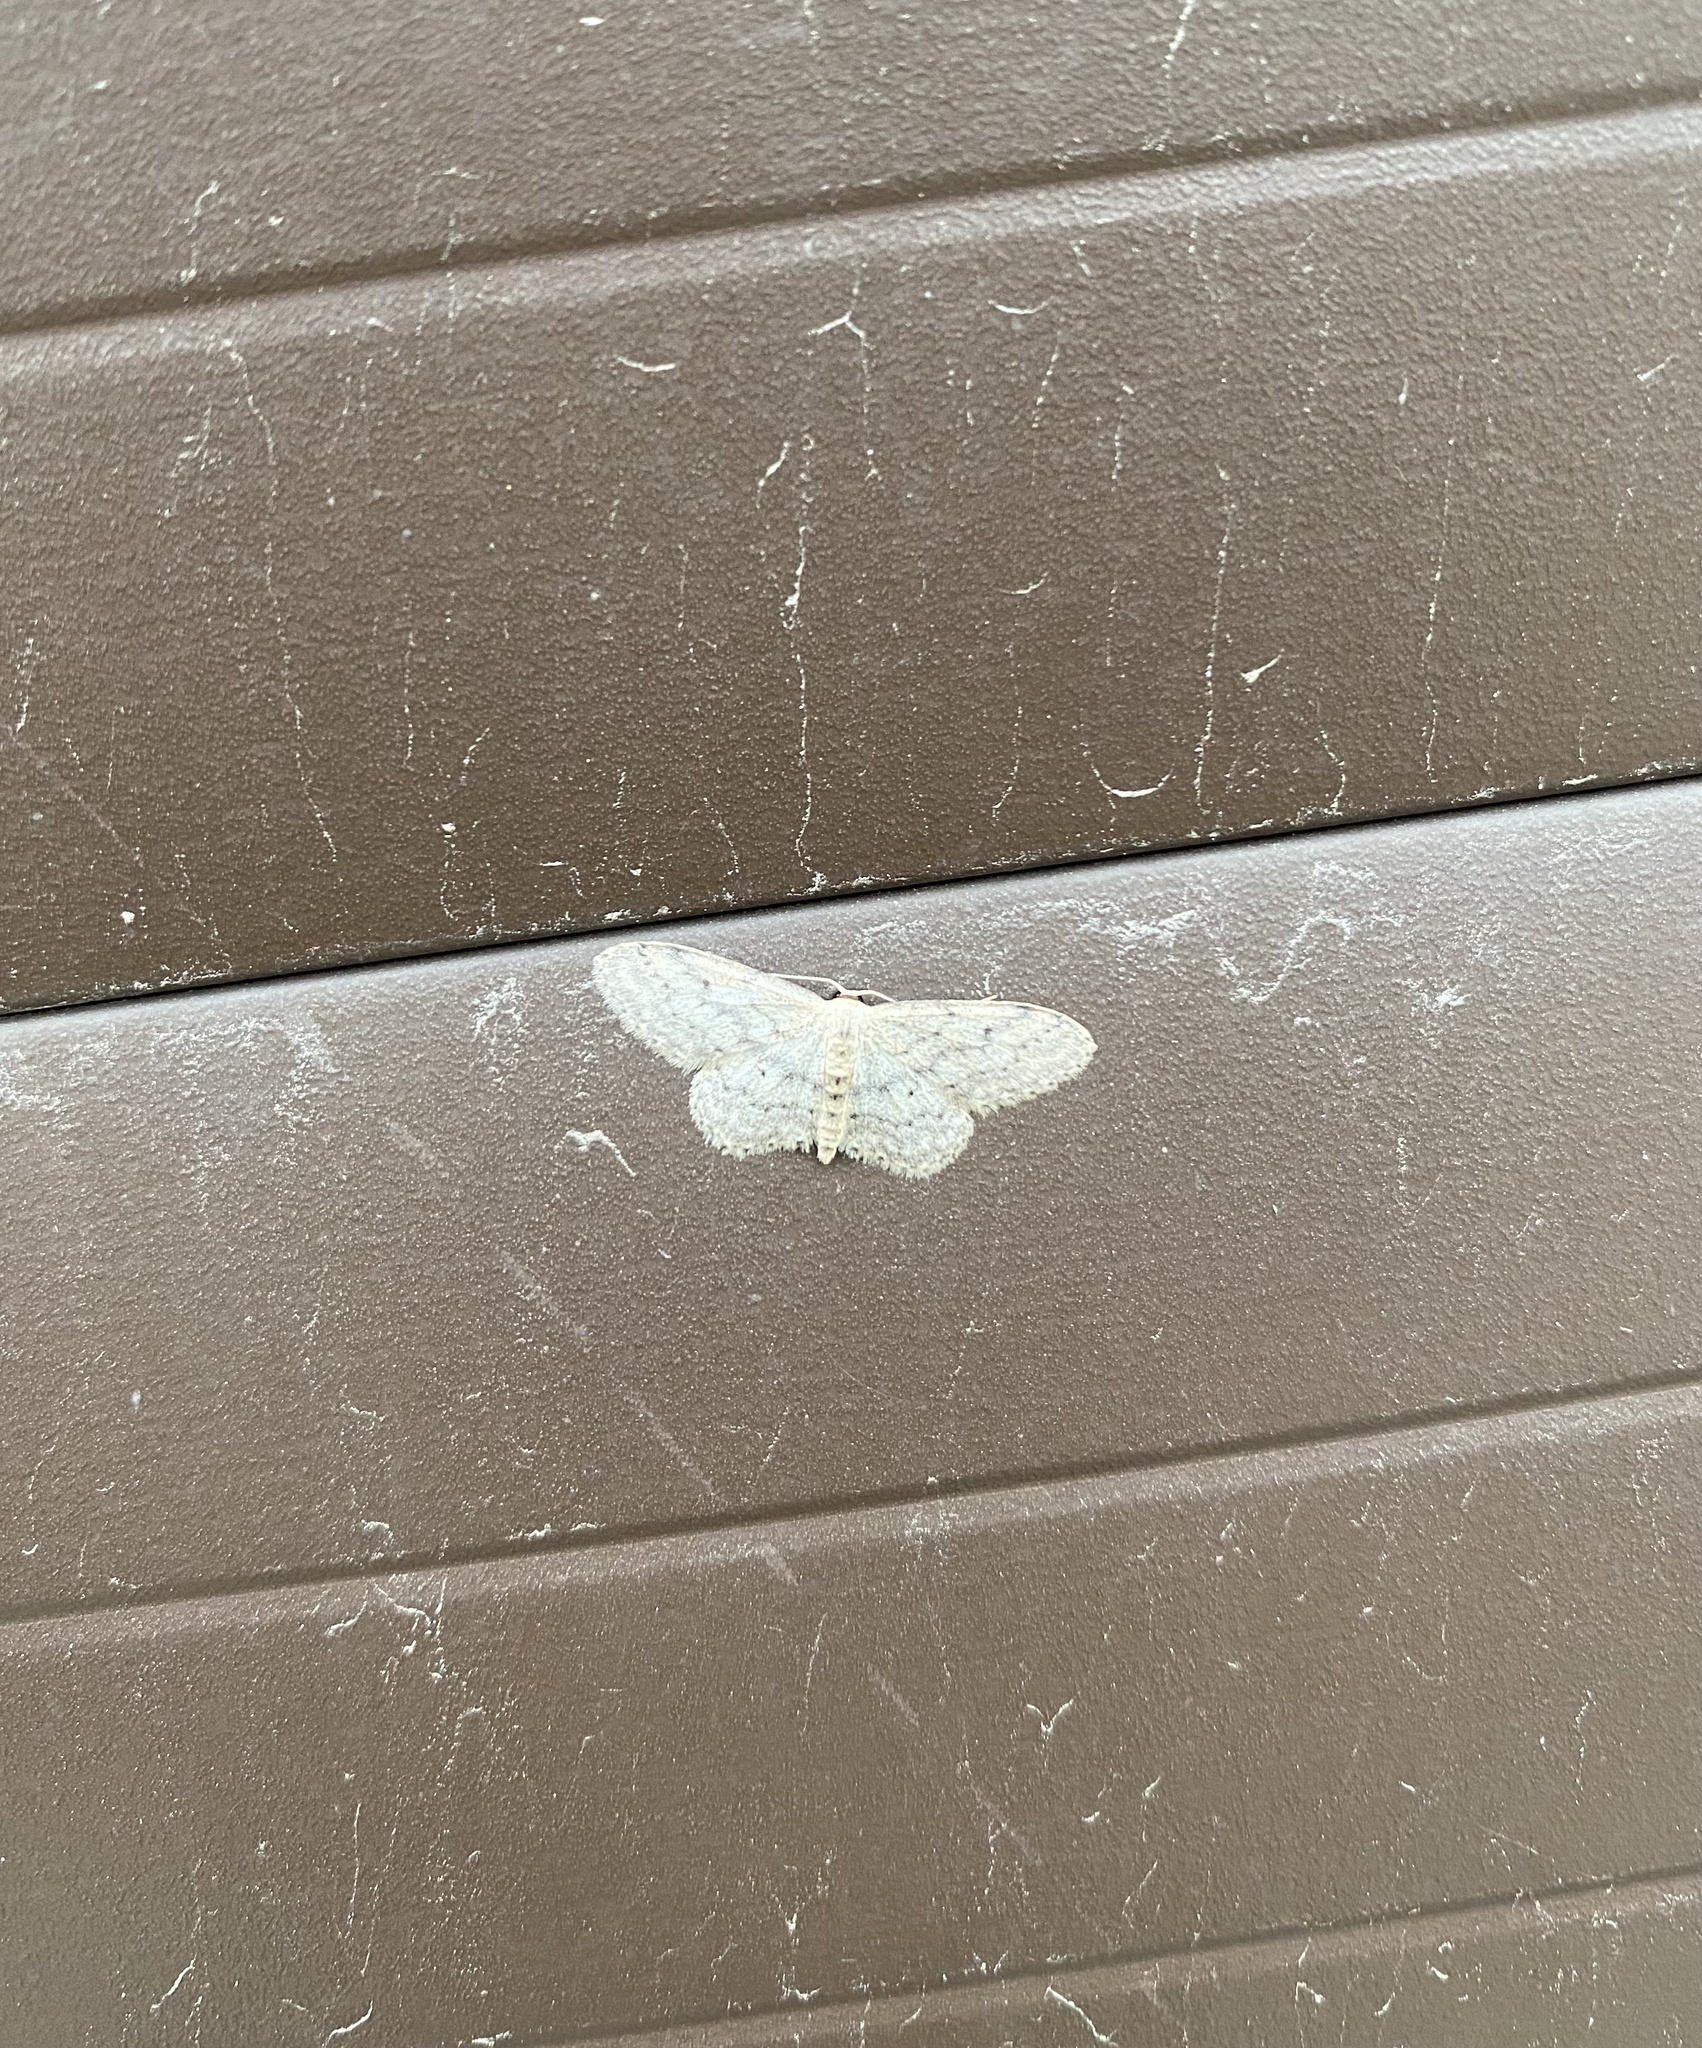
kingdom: Animalia
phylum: Arthropoda
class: Insecta
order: Lepidoptera
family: Geometridae
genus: Idaea
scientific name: Idaea seriata
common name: Small dusty wave
